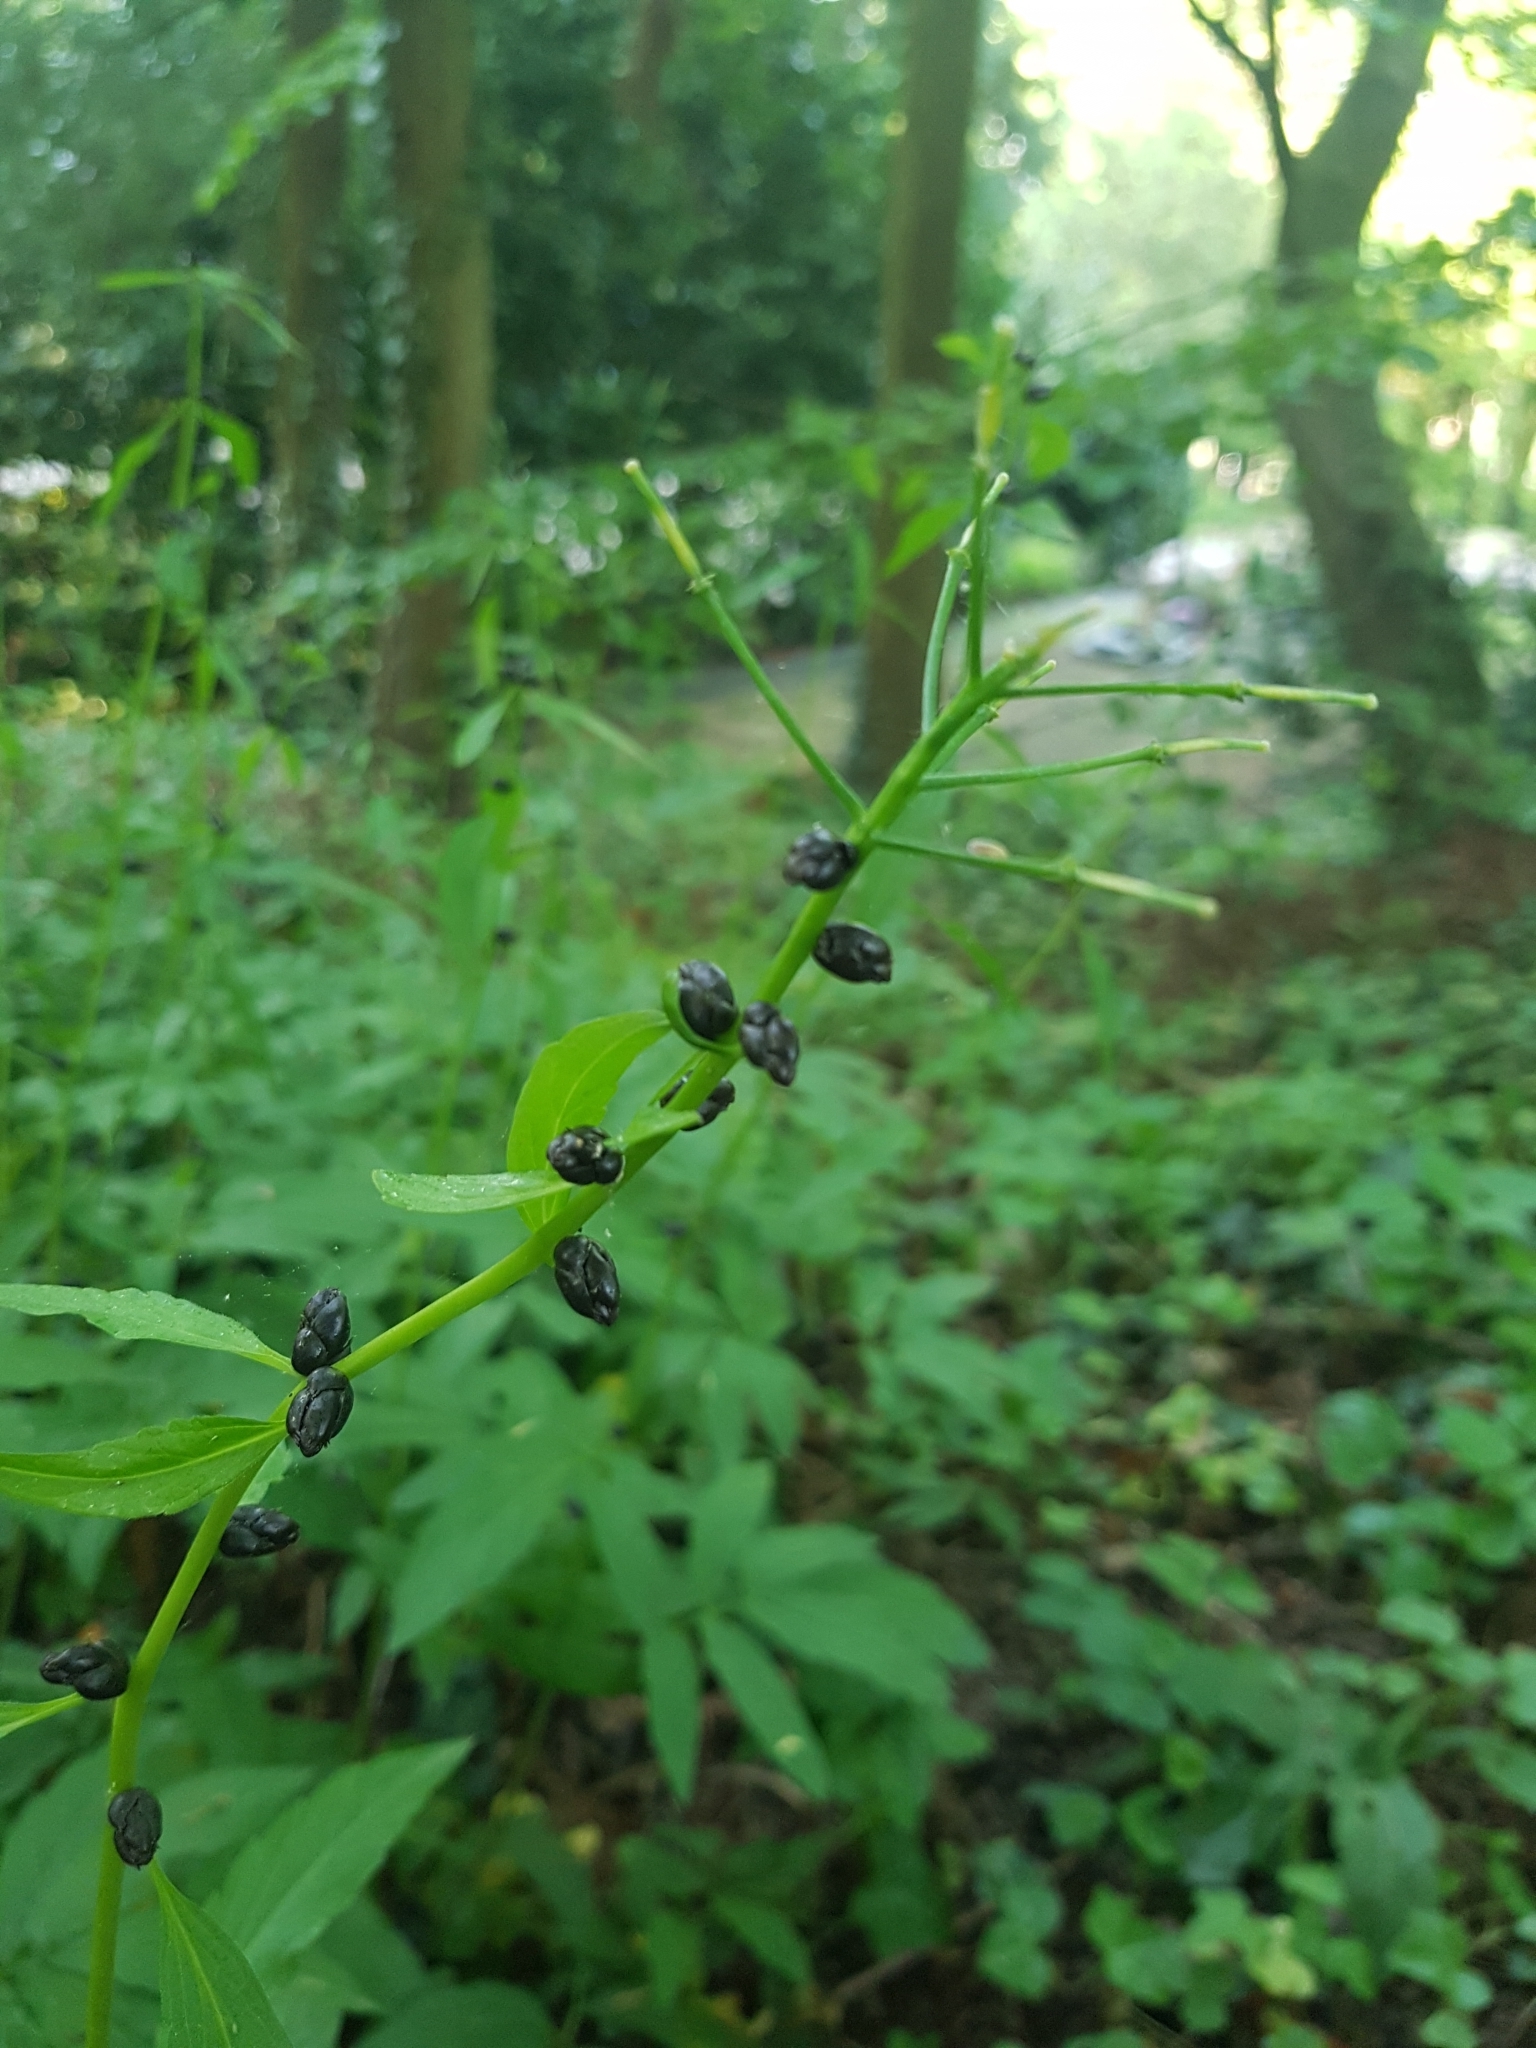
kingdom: Plantae
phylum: Tracheophyta
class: Magnoliopsida
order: Brassicales
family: Brassicaceae
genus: Cardamine
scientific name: Cardamine bulbifera
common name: Coralroot bittercress
